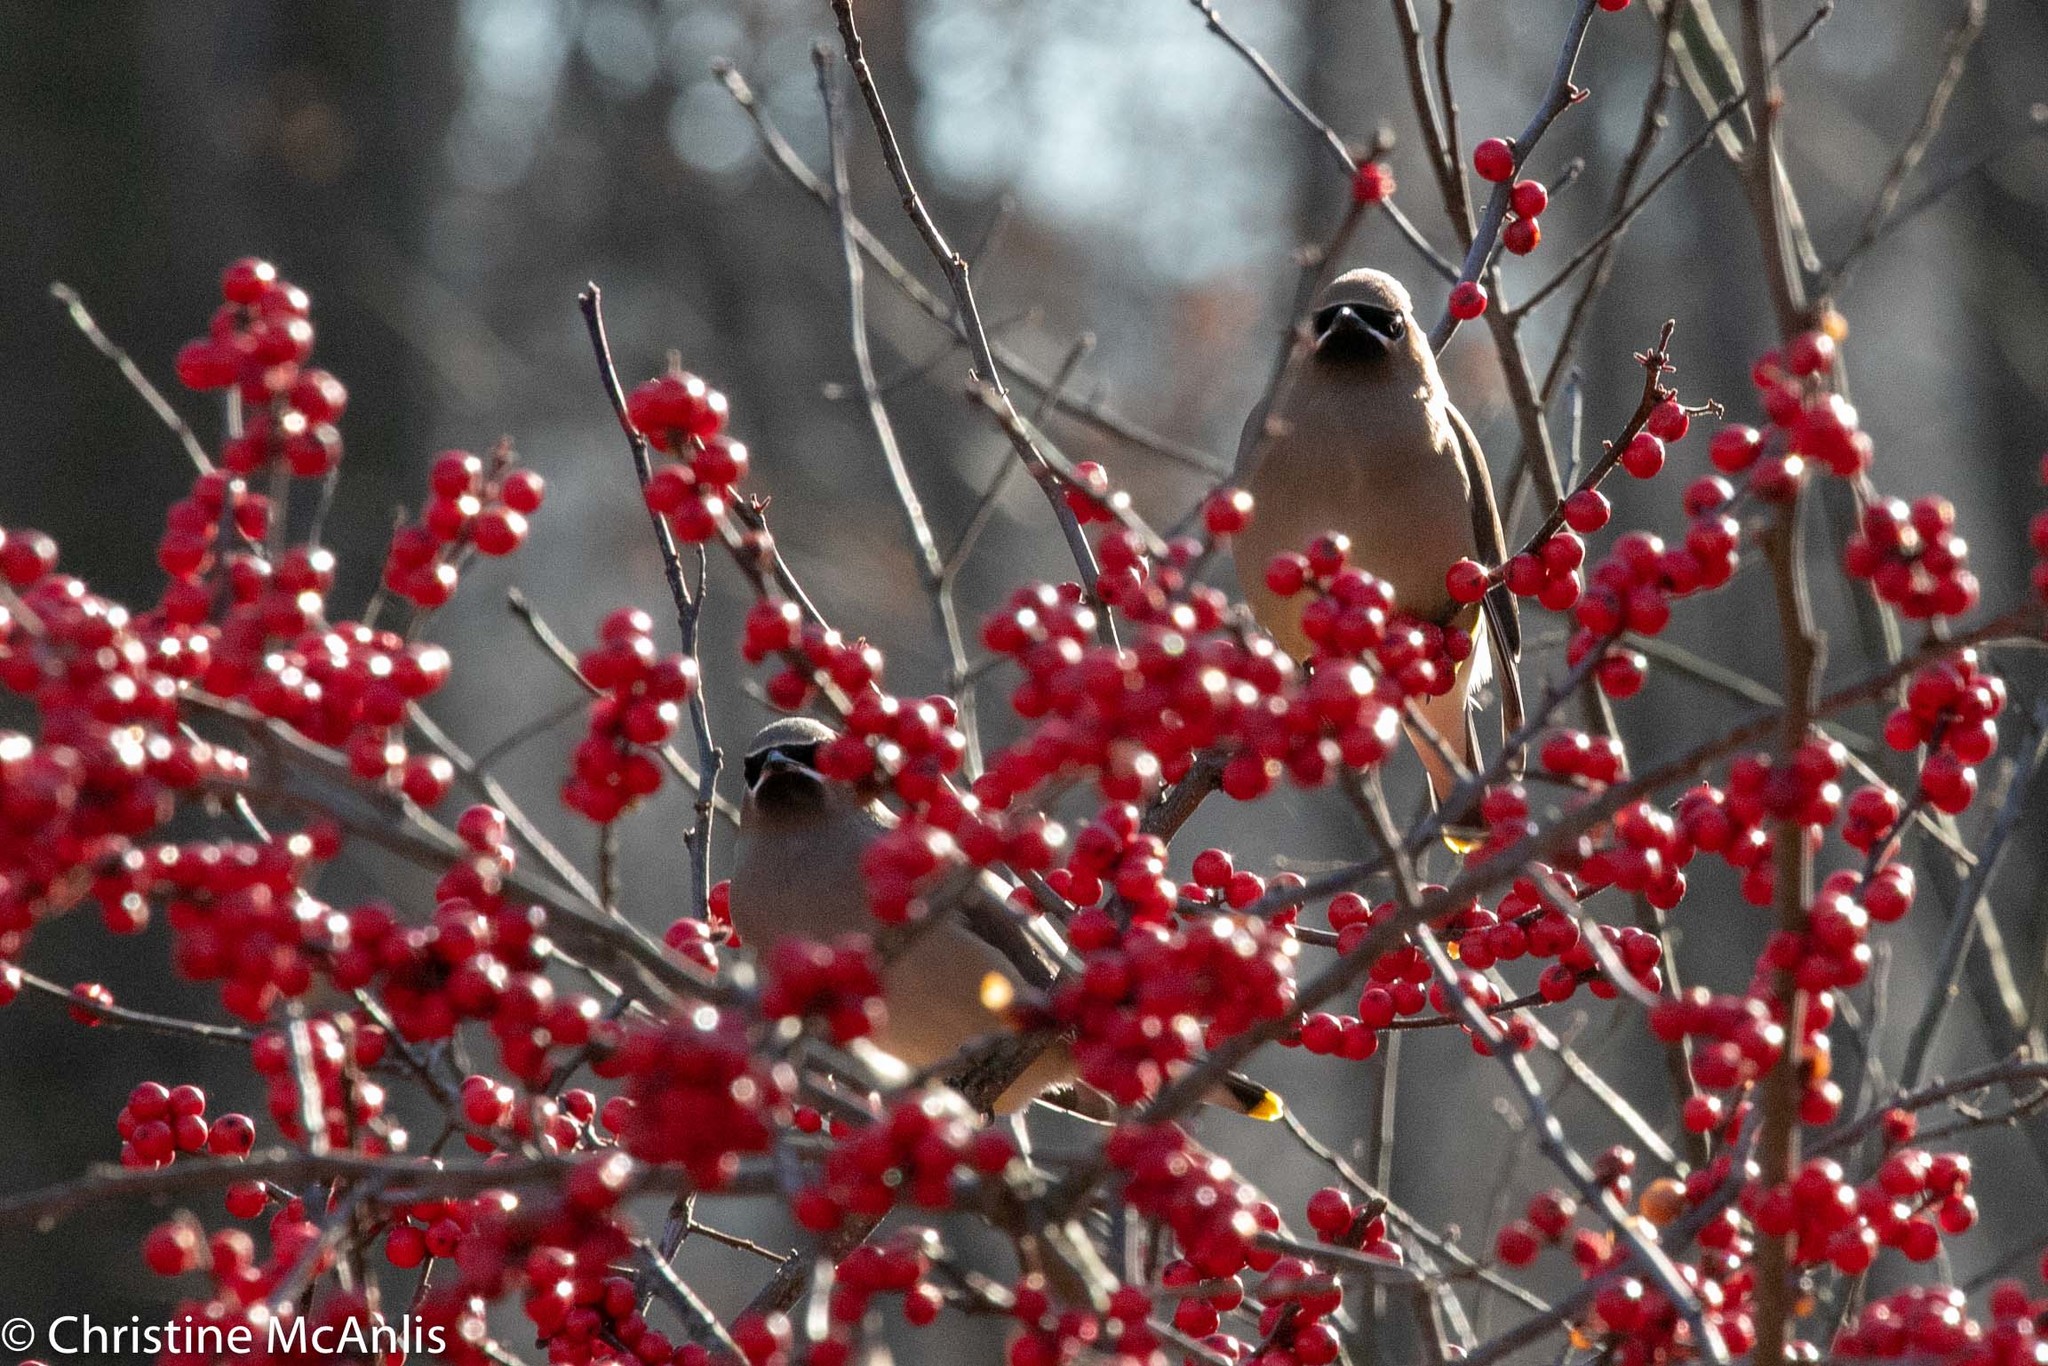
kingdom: Animalia
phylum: Chordata
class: Aves
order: Passeriformes
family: Bombycillidae
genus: Bombycilla
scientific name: Bombycilla cedrorum
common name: Cedar waxwing
